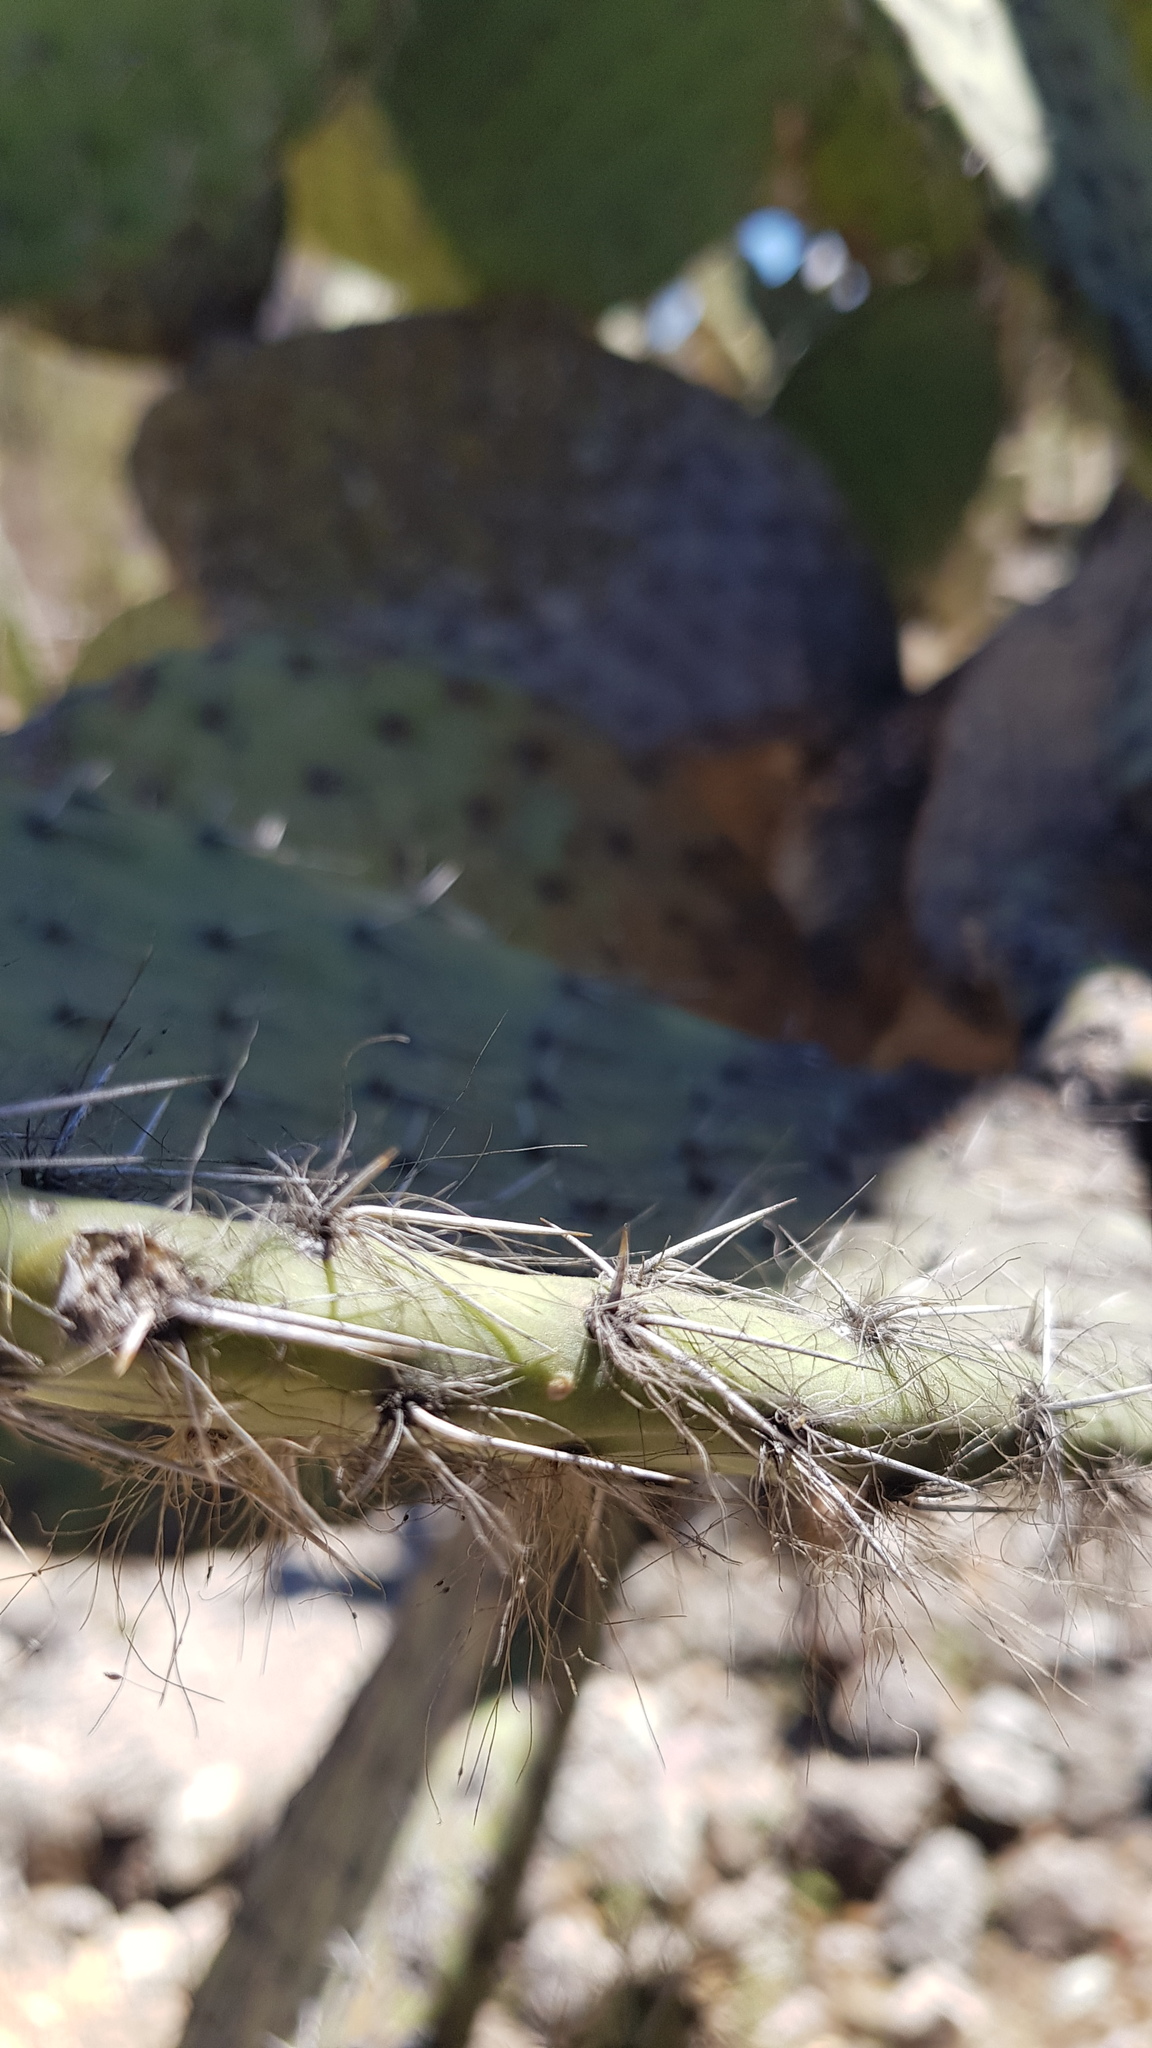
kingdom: Plantae
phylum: Tracheophyta
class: Magnoliopsida
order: Caryophyllales
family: Cactaceae
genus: Opuntia
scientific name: Opuntia pilifera
